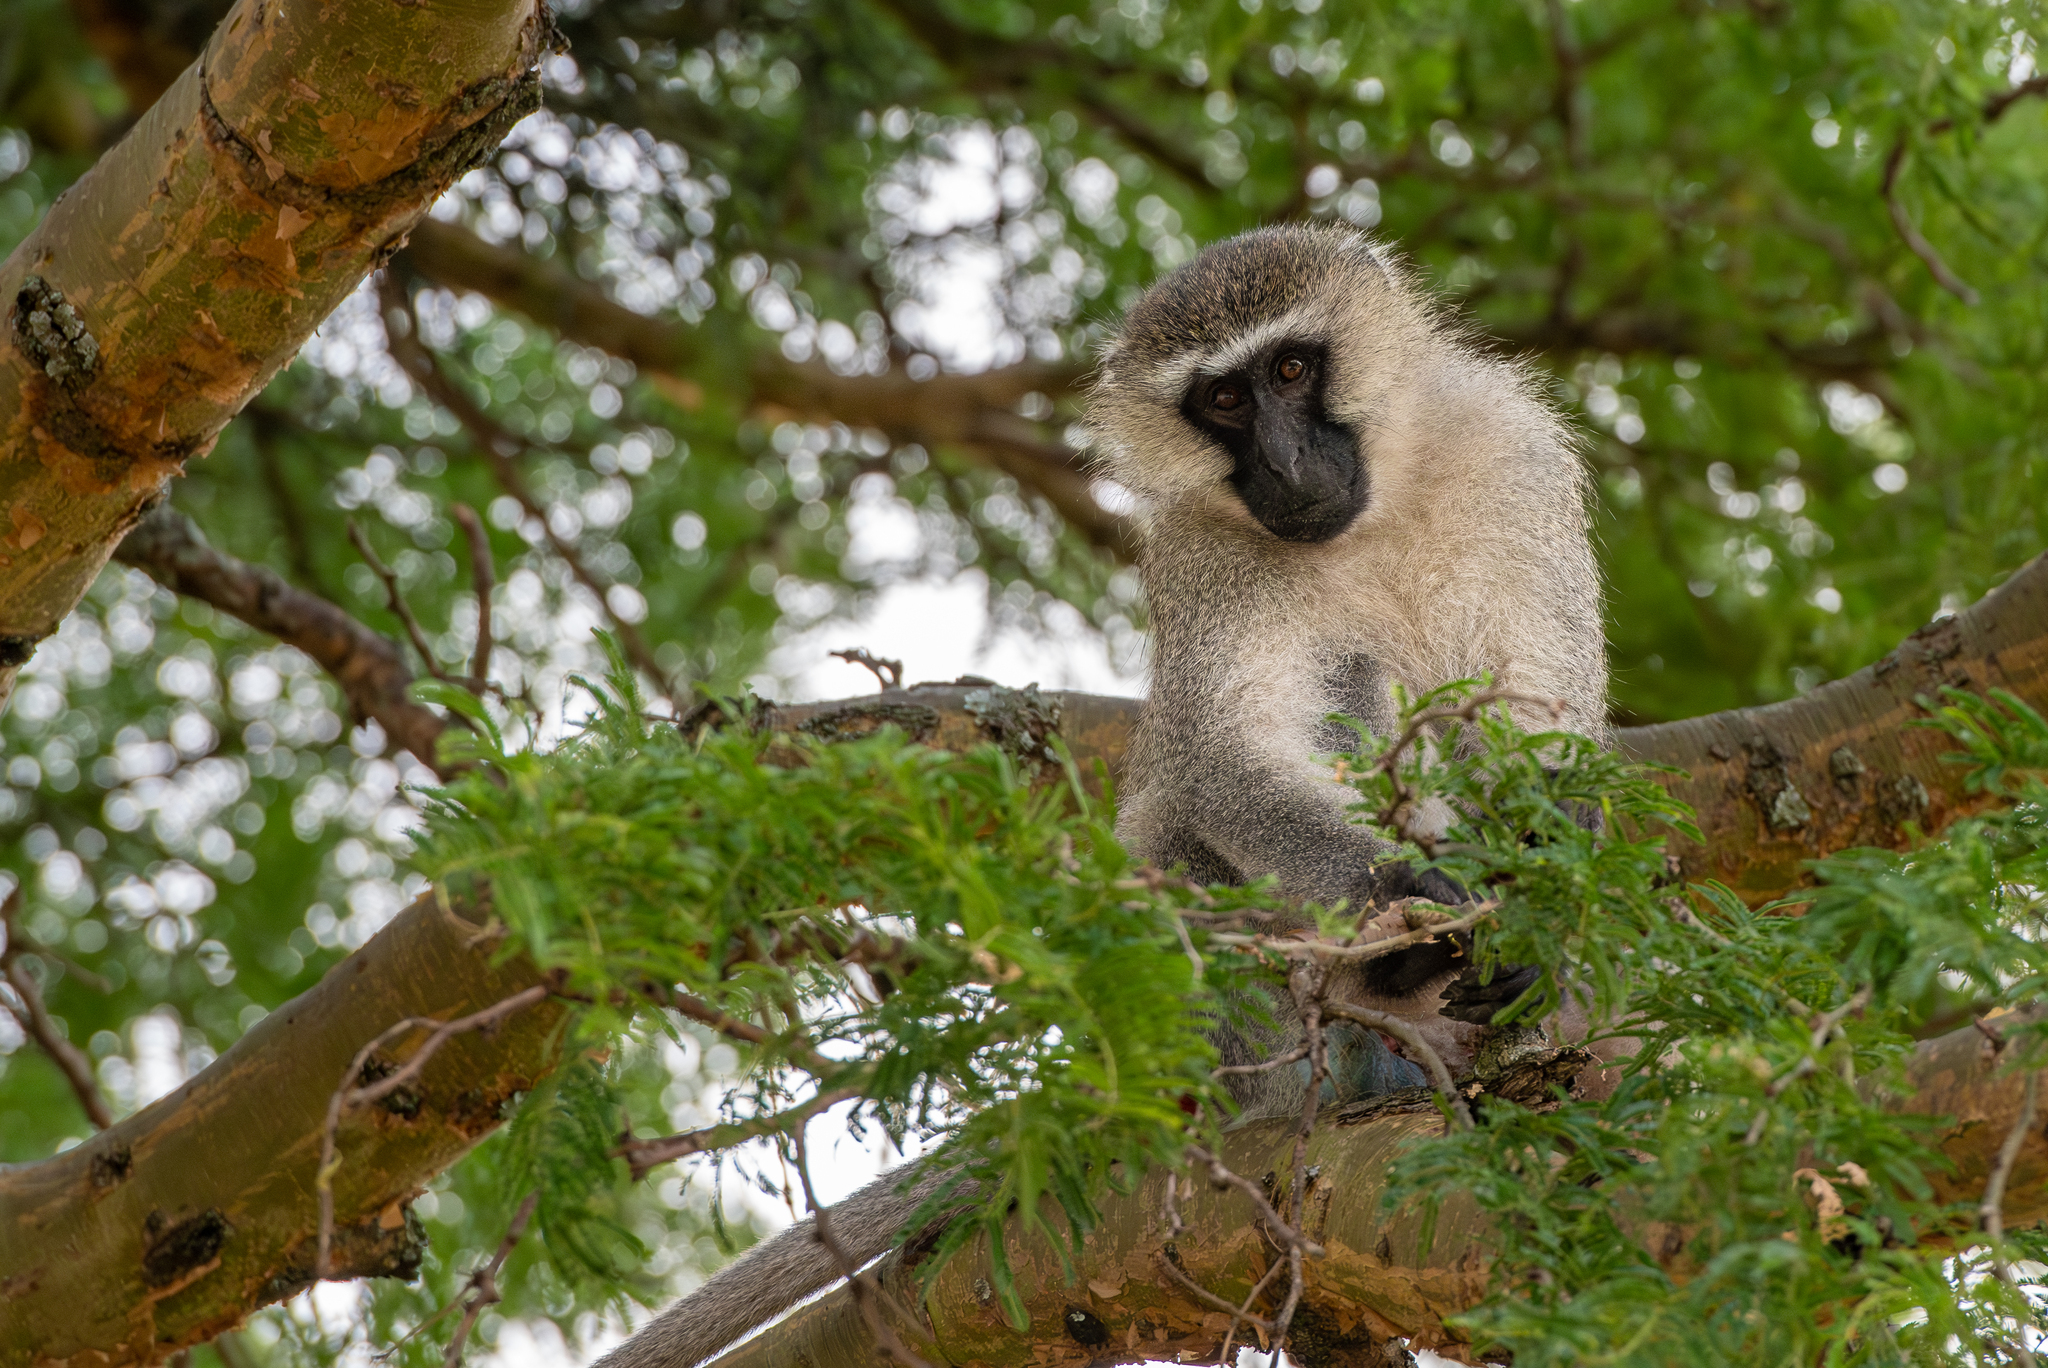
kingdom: Animalia
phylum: Chordata
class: Mammalia
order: Primates
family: Cercopithecidae
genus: Chlorocebus
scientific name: Chlorocebus tantalus
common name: Tantalus monkey
